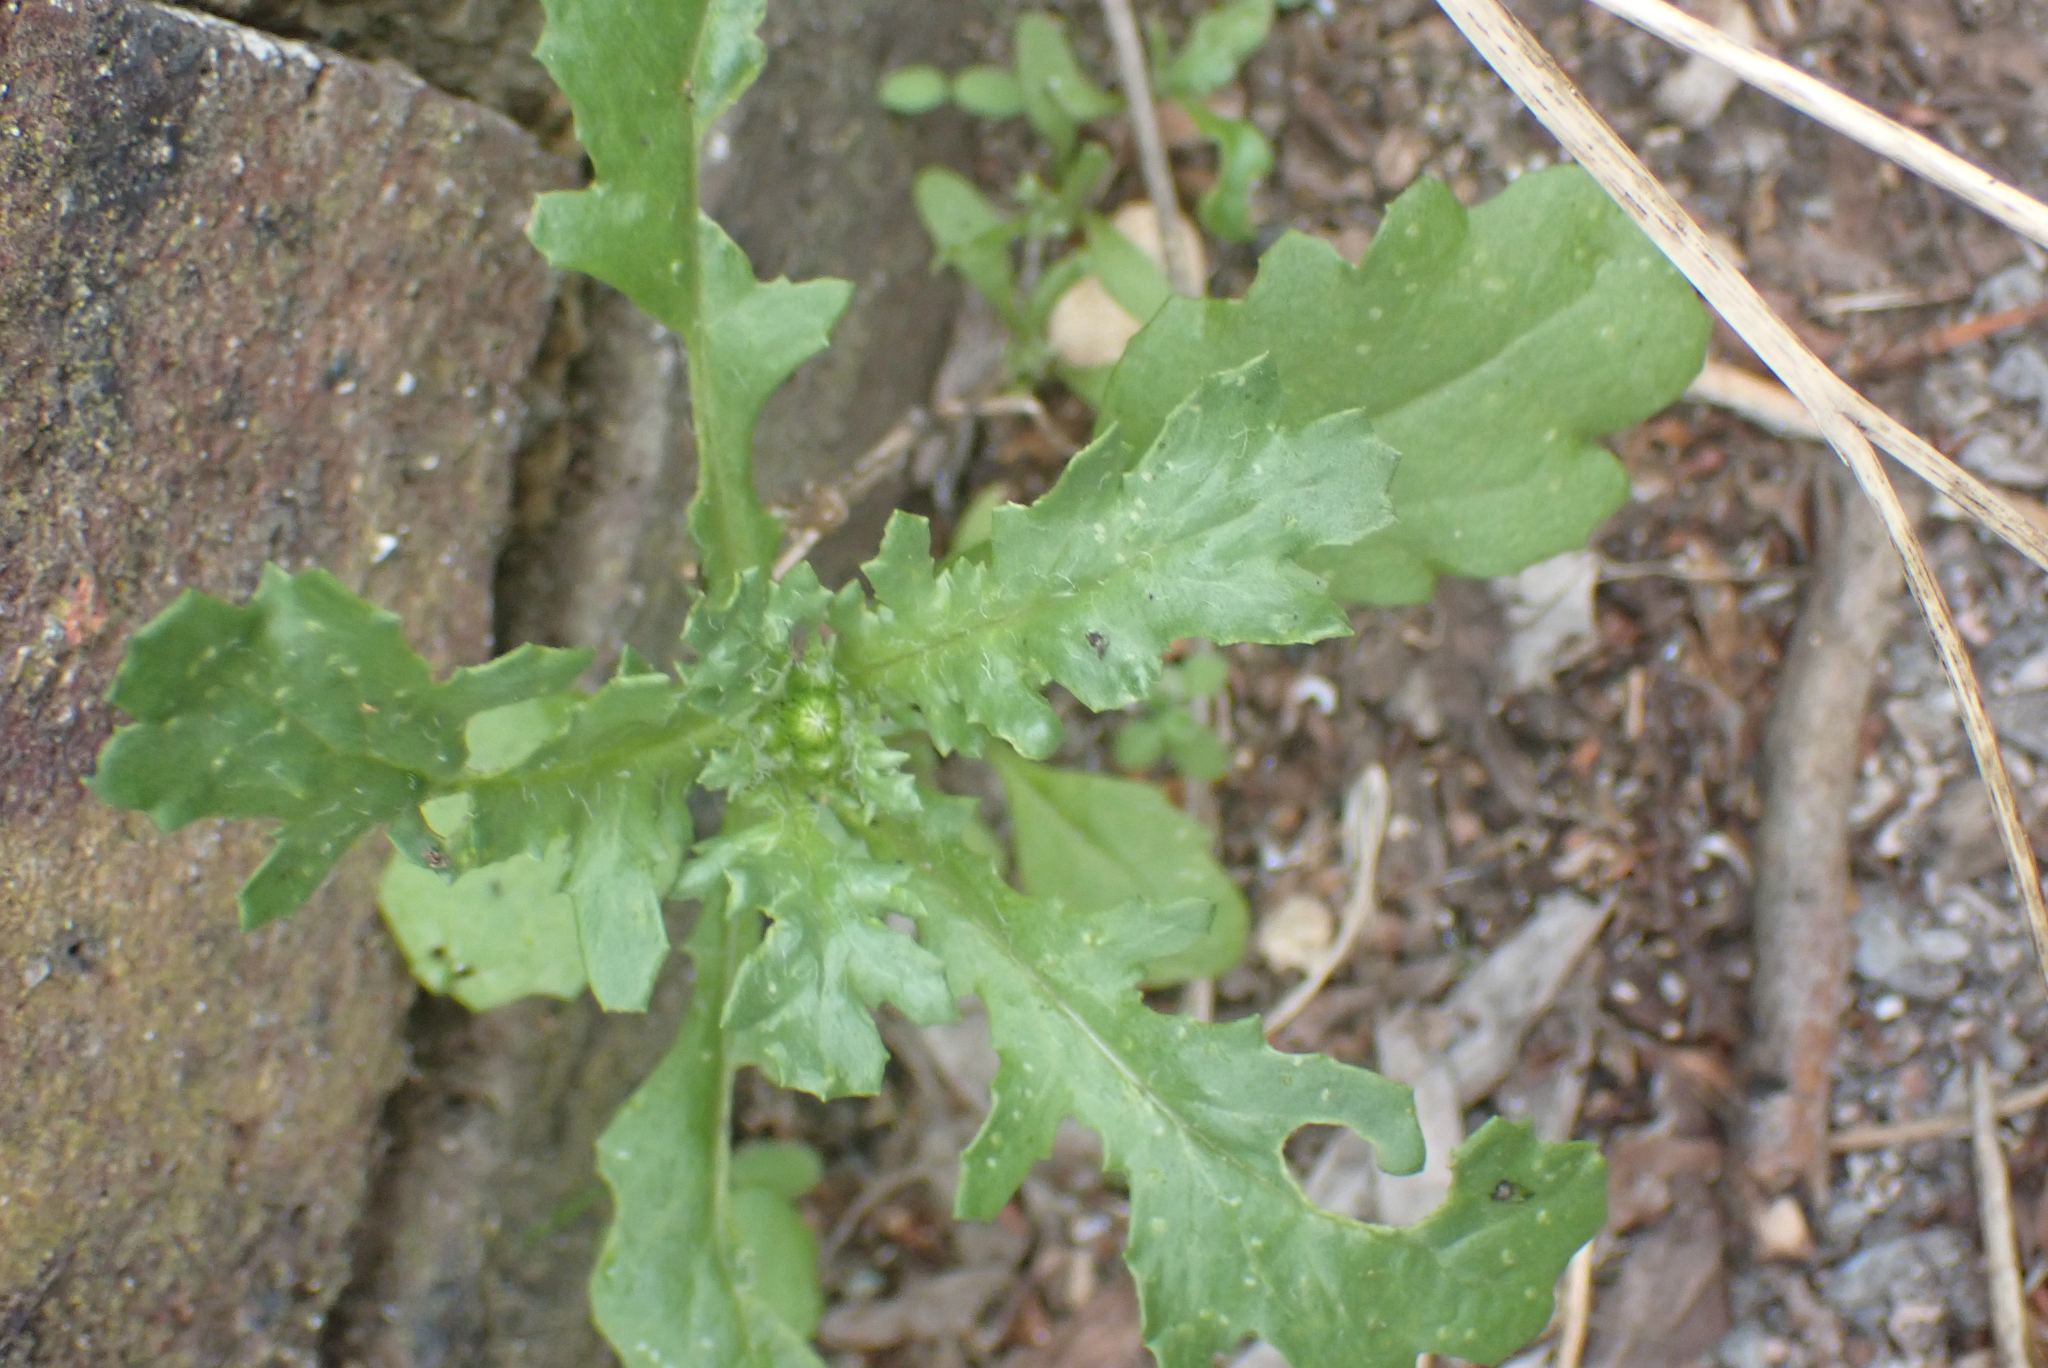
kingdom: Plantae
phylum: Tracheophyta
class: Magnoliopsida
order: Asterales
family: Asteraceae
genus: Senecio
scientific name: Senecio vulgaris
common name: Old-man-in-the-spring
